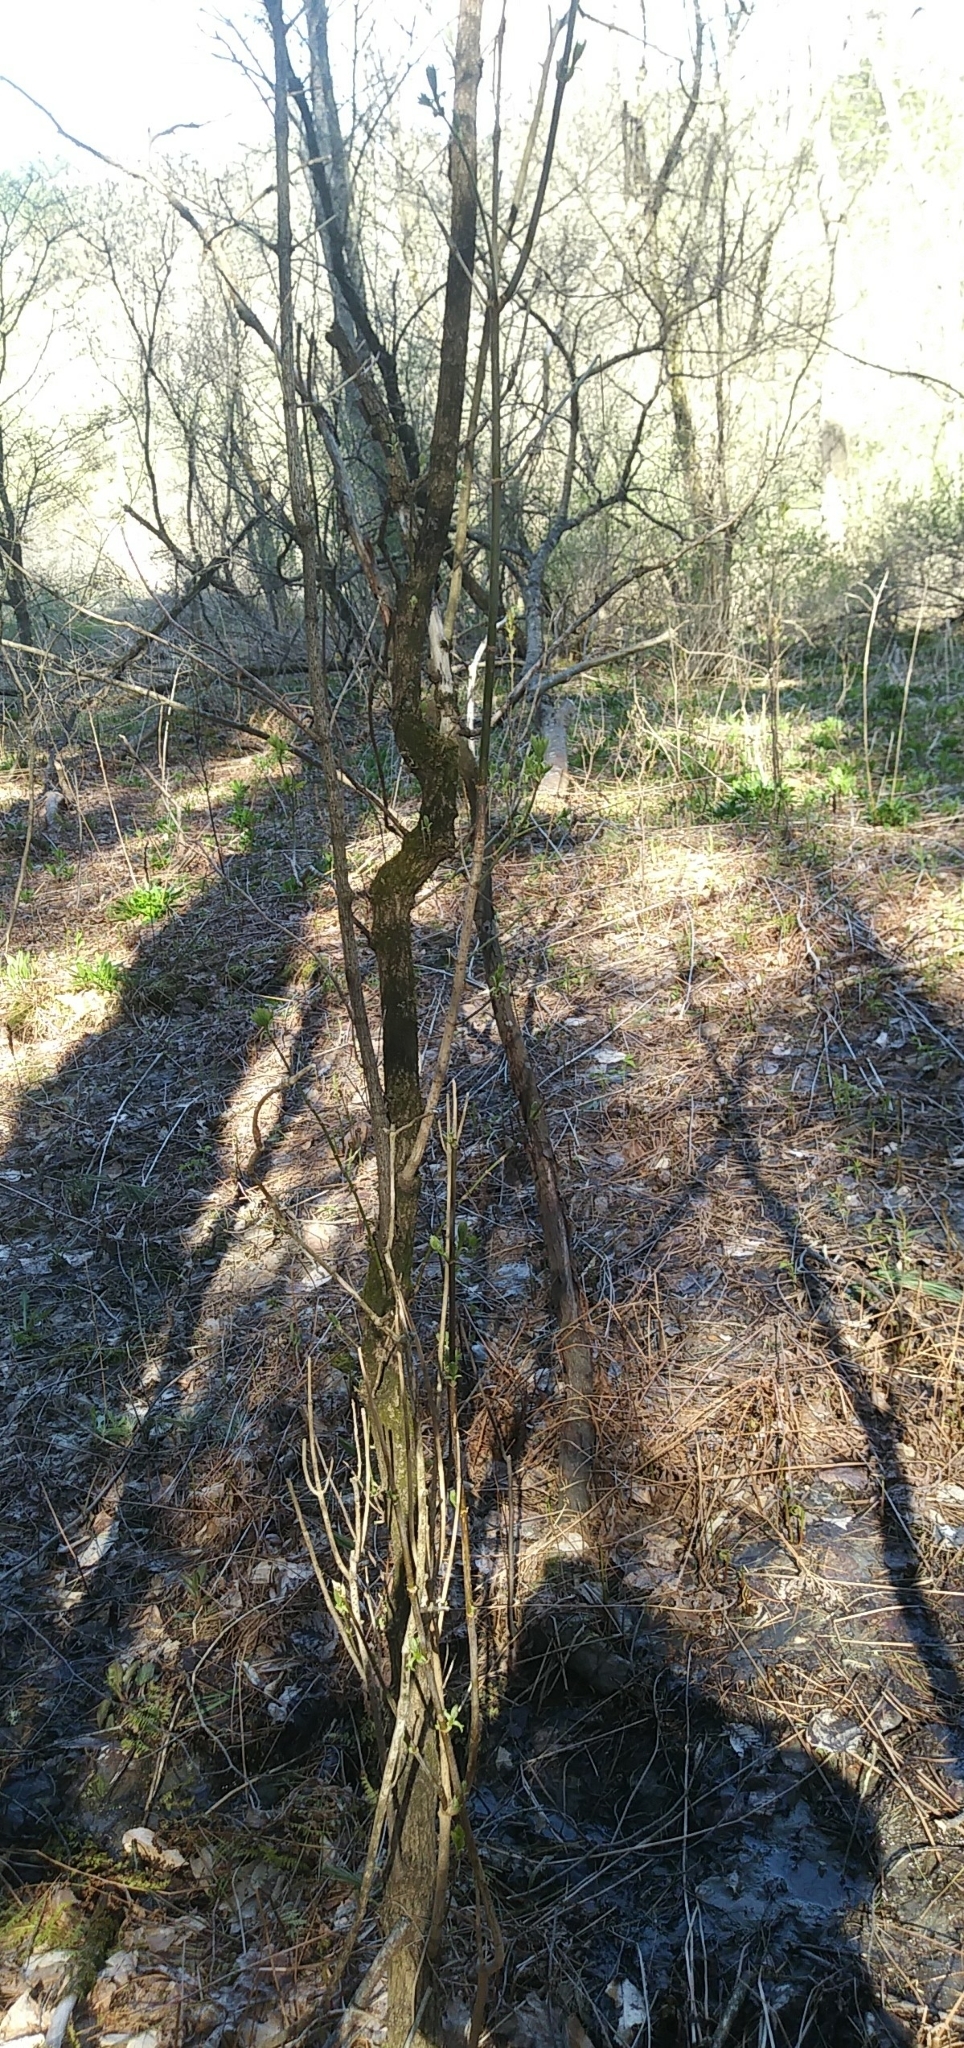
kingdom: Plantae
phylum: Tracheophyta
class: Magnoliopsida
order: Sapindales
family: Sapindaceae
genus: Acer
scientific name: Acer negundo
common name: Ashleaf maple
